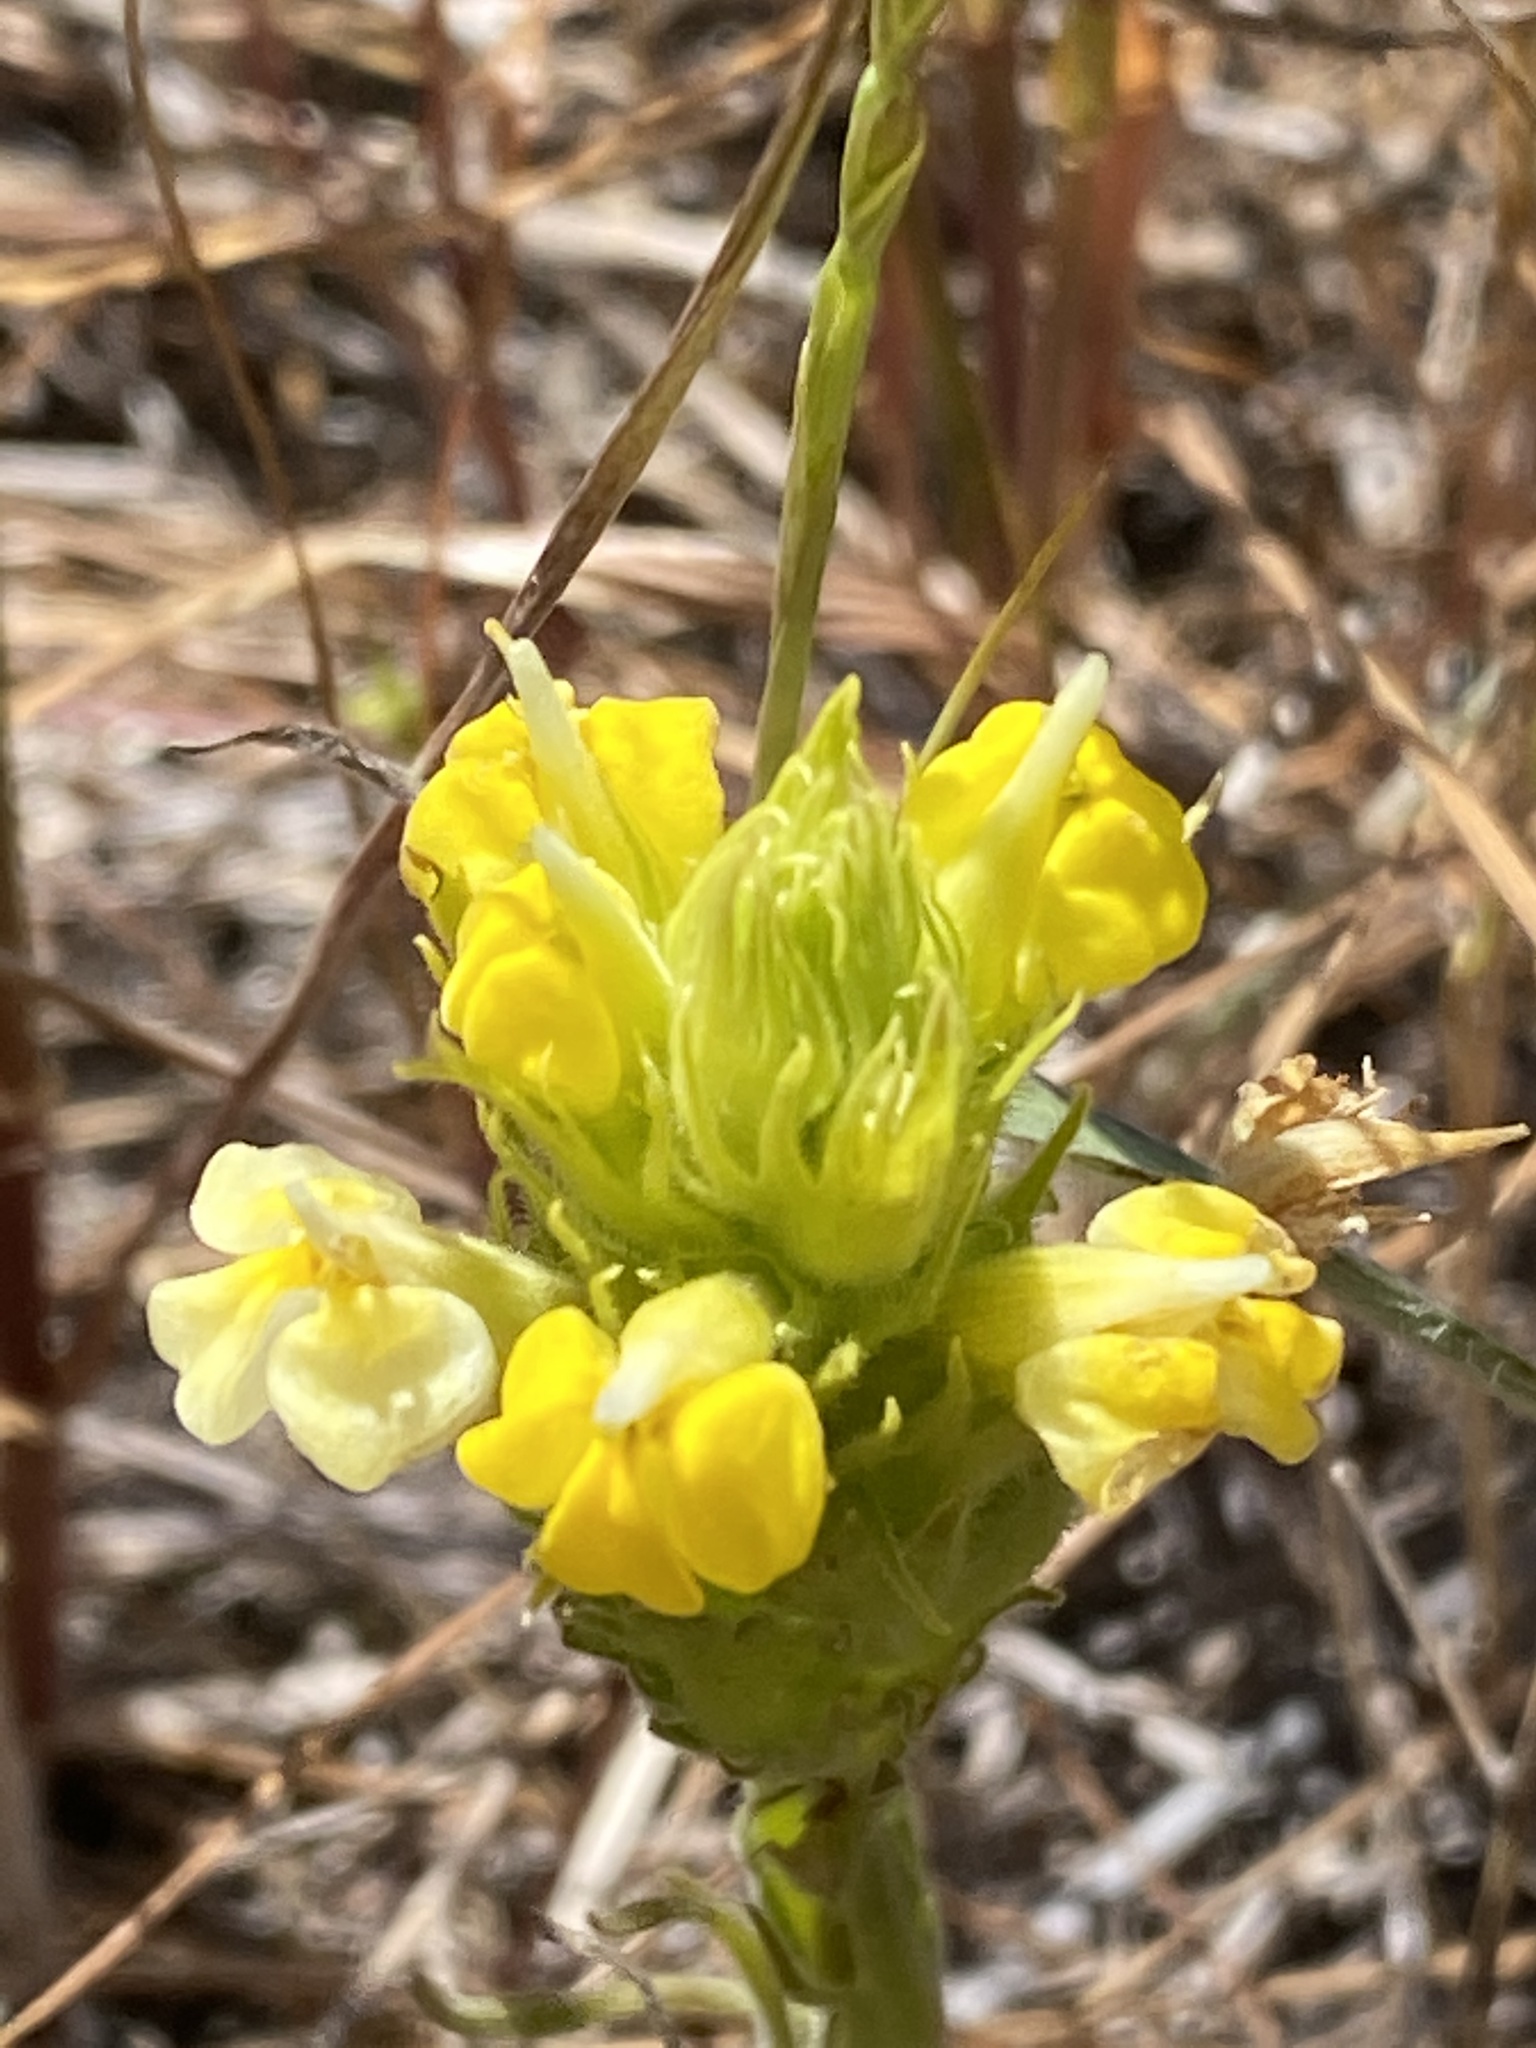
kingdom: Plantae
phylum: Tracheophyta
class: Magnoliopsida
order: Lamiales
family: Orobanchaceae
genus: Castilleja
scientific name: Castilleja rubicundula
